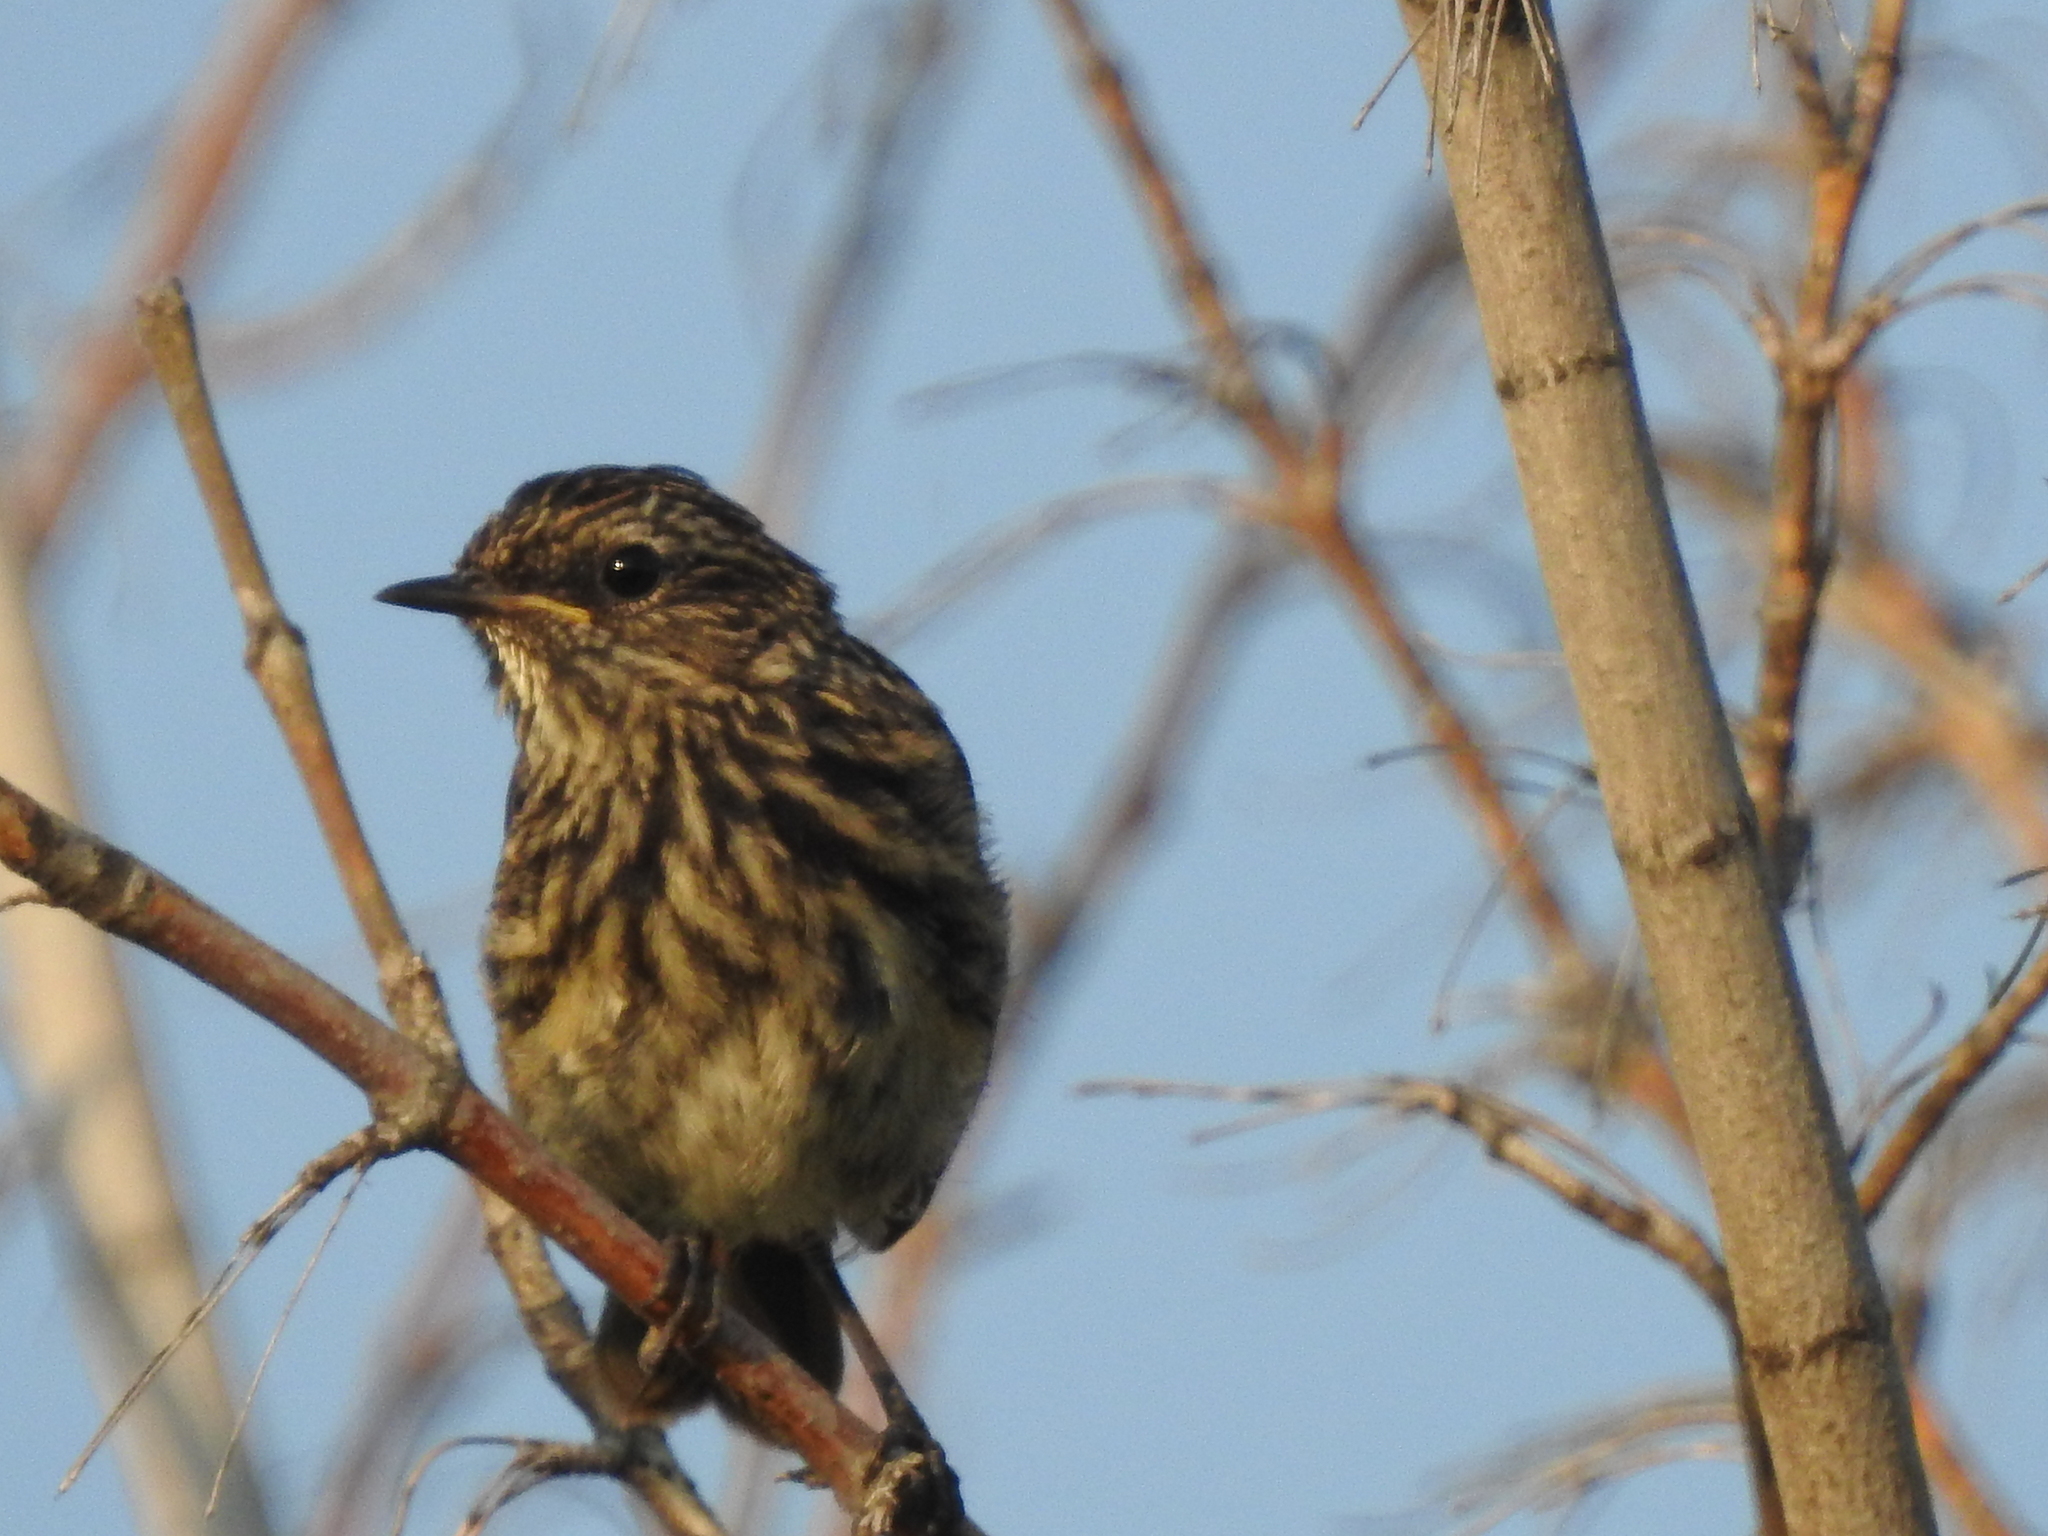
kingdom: Animalia
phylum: Chordata
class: Aves
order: Passeriformes
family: Muscicapidae
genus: Luscinia
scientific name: Luscinia svecica
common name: Bluethroat
